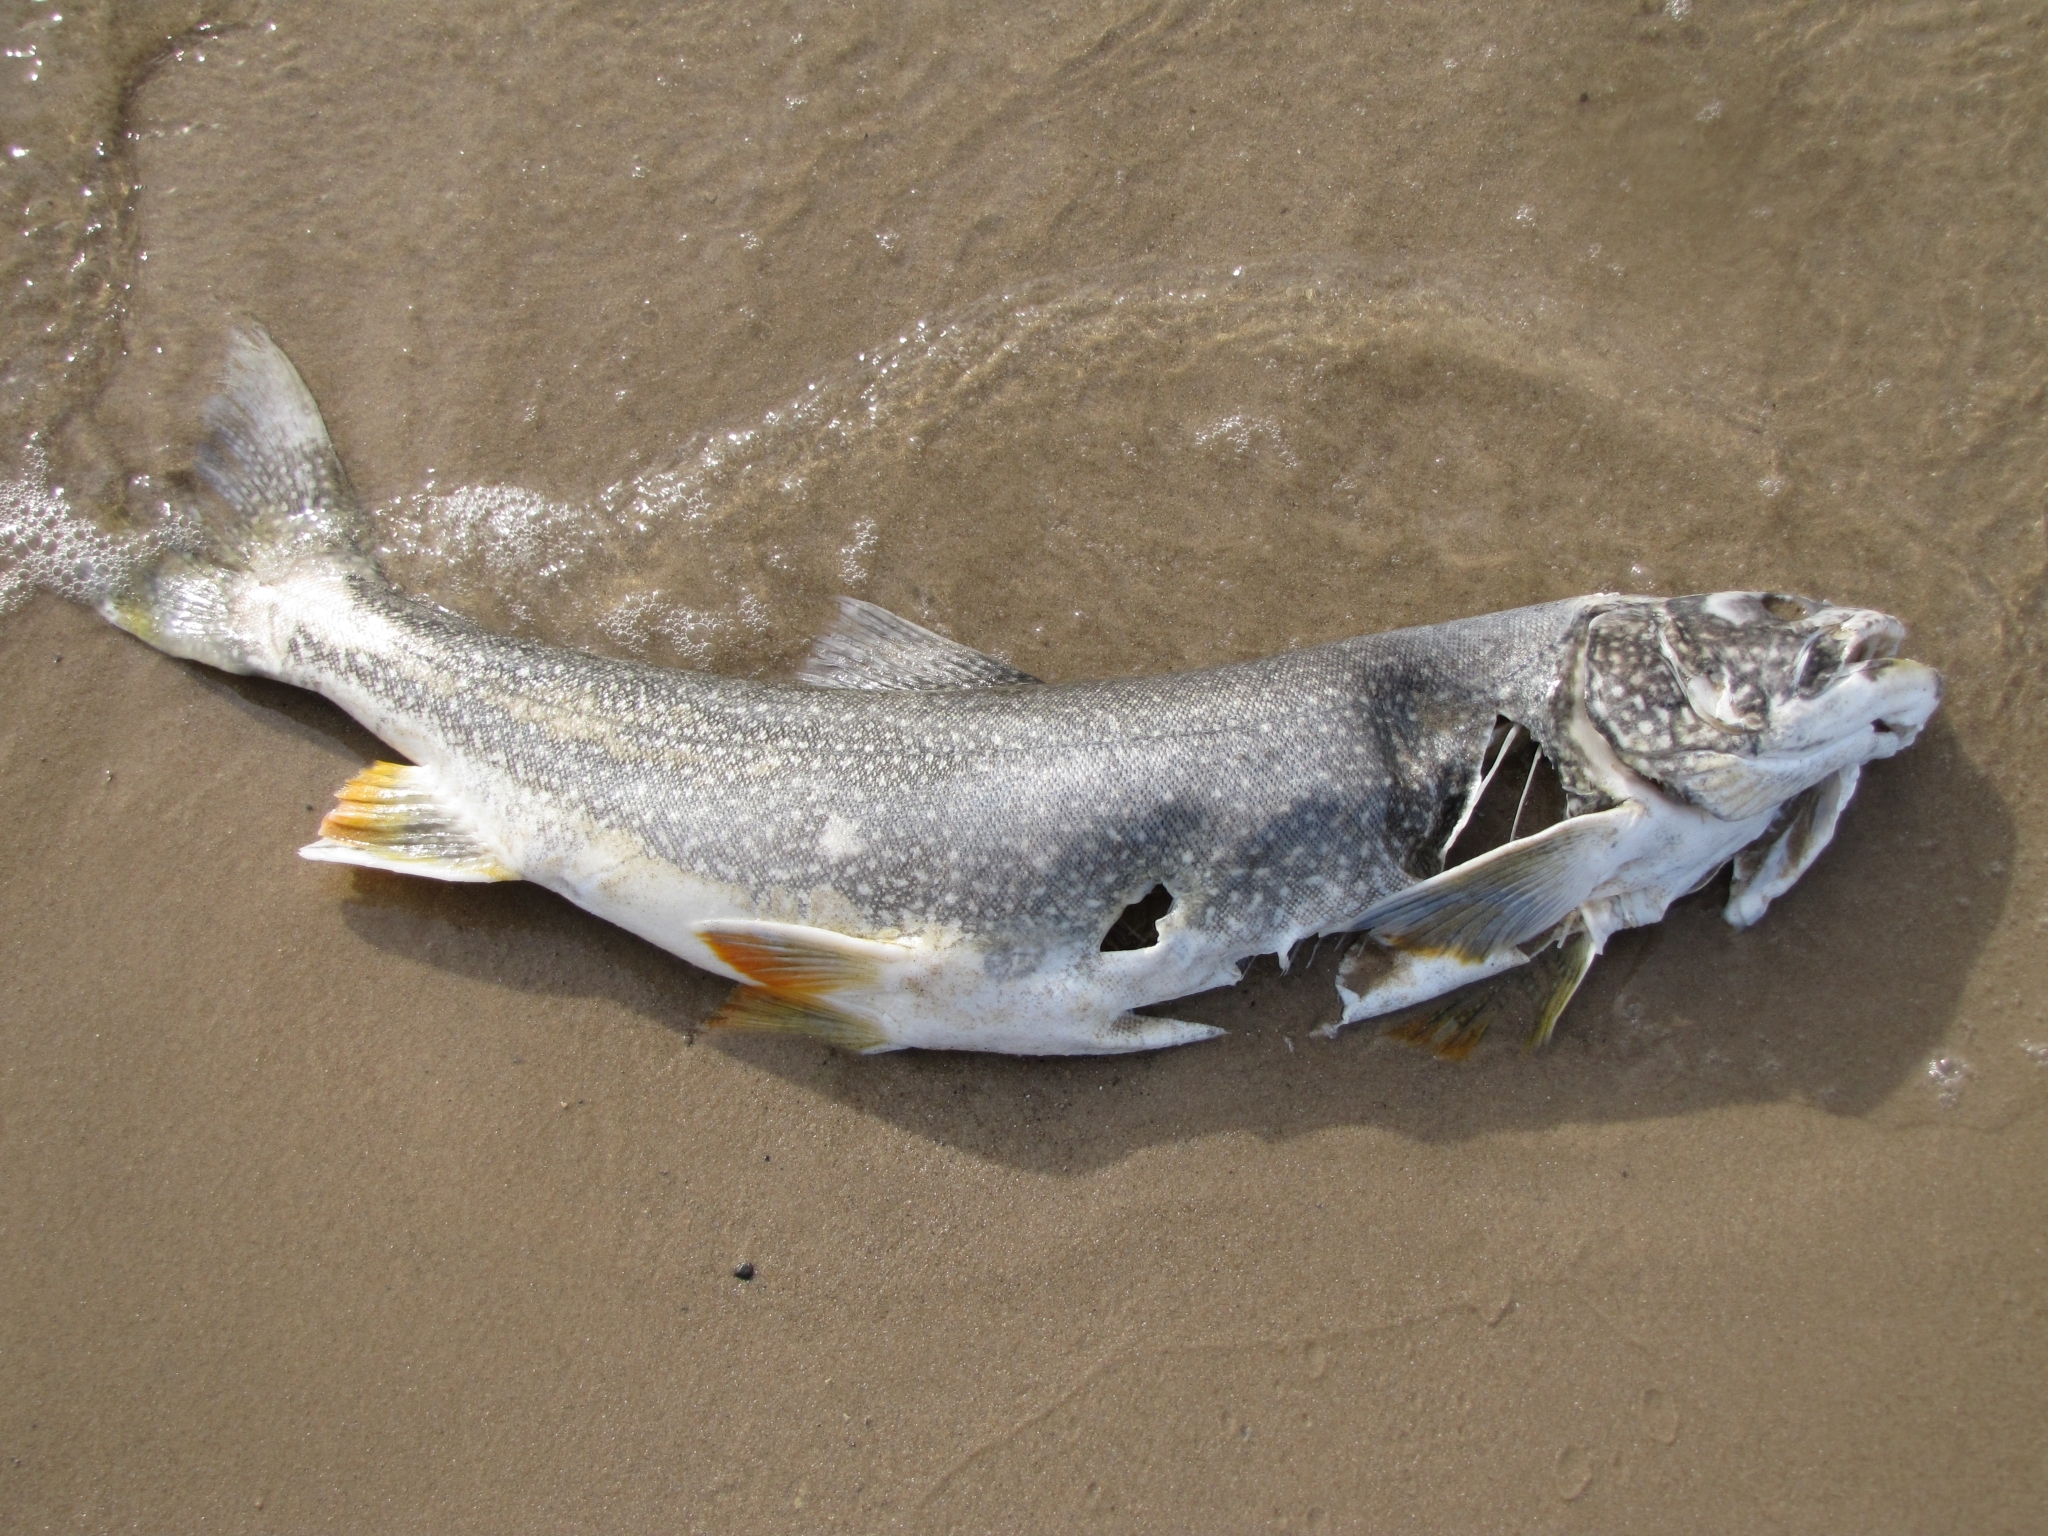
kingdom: Animalia
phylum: Chordata
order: Salmoniformes
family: Salmonidae
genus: Salvelinus
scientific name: Salvelinus namaycush
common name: American lake charr
